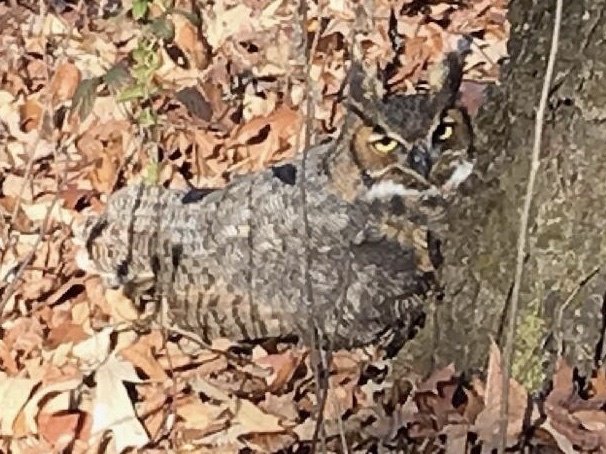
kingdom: Animalia
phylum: Chordata
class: Aves
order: Strigiformes
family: Strigidae
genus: Bubo
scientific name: Bubo virginianus
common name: Great horned owl
